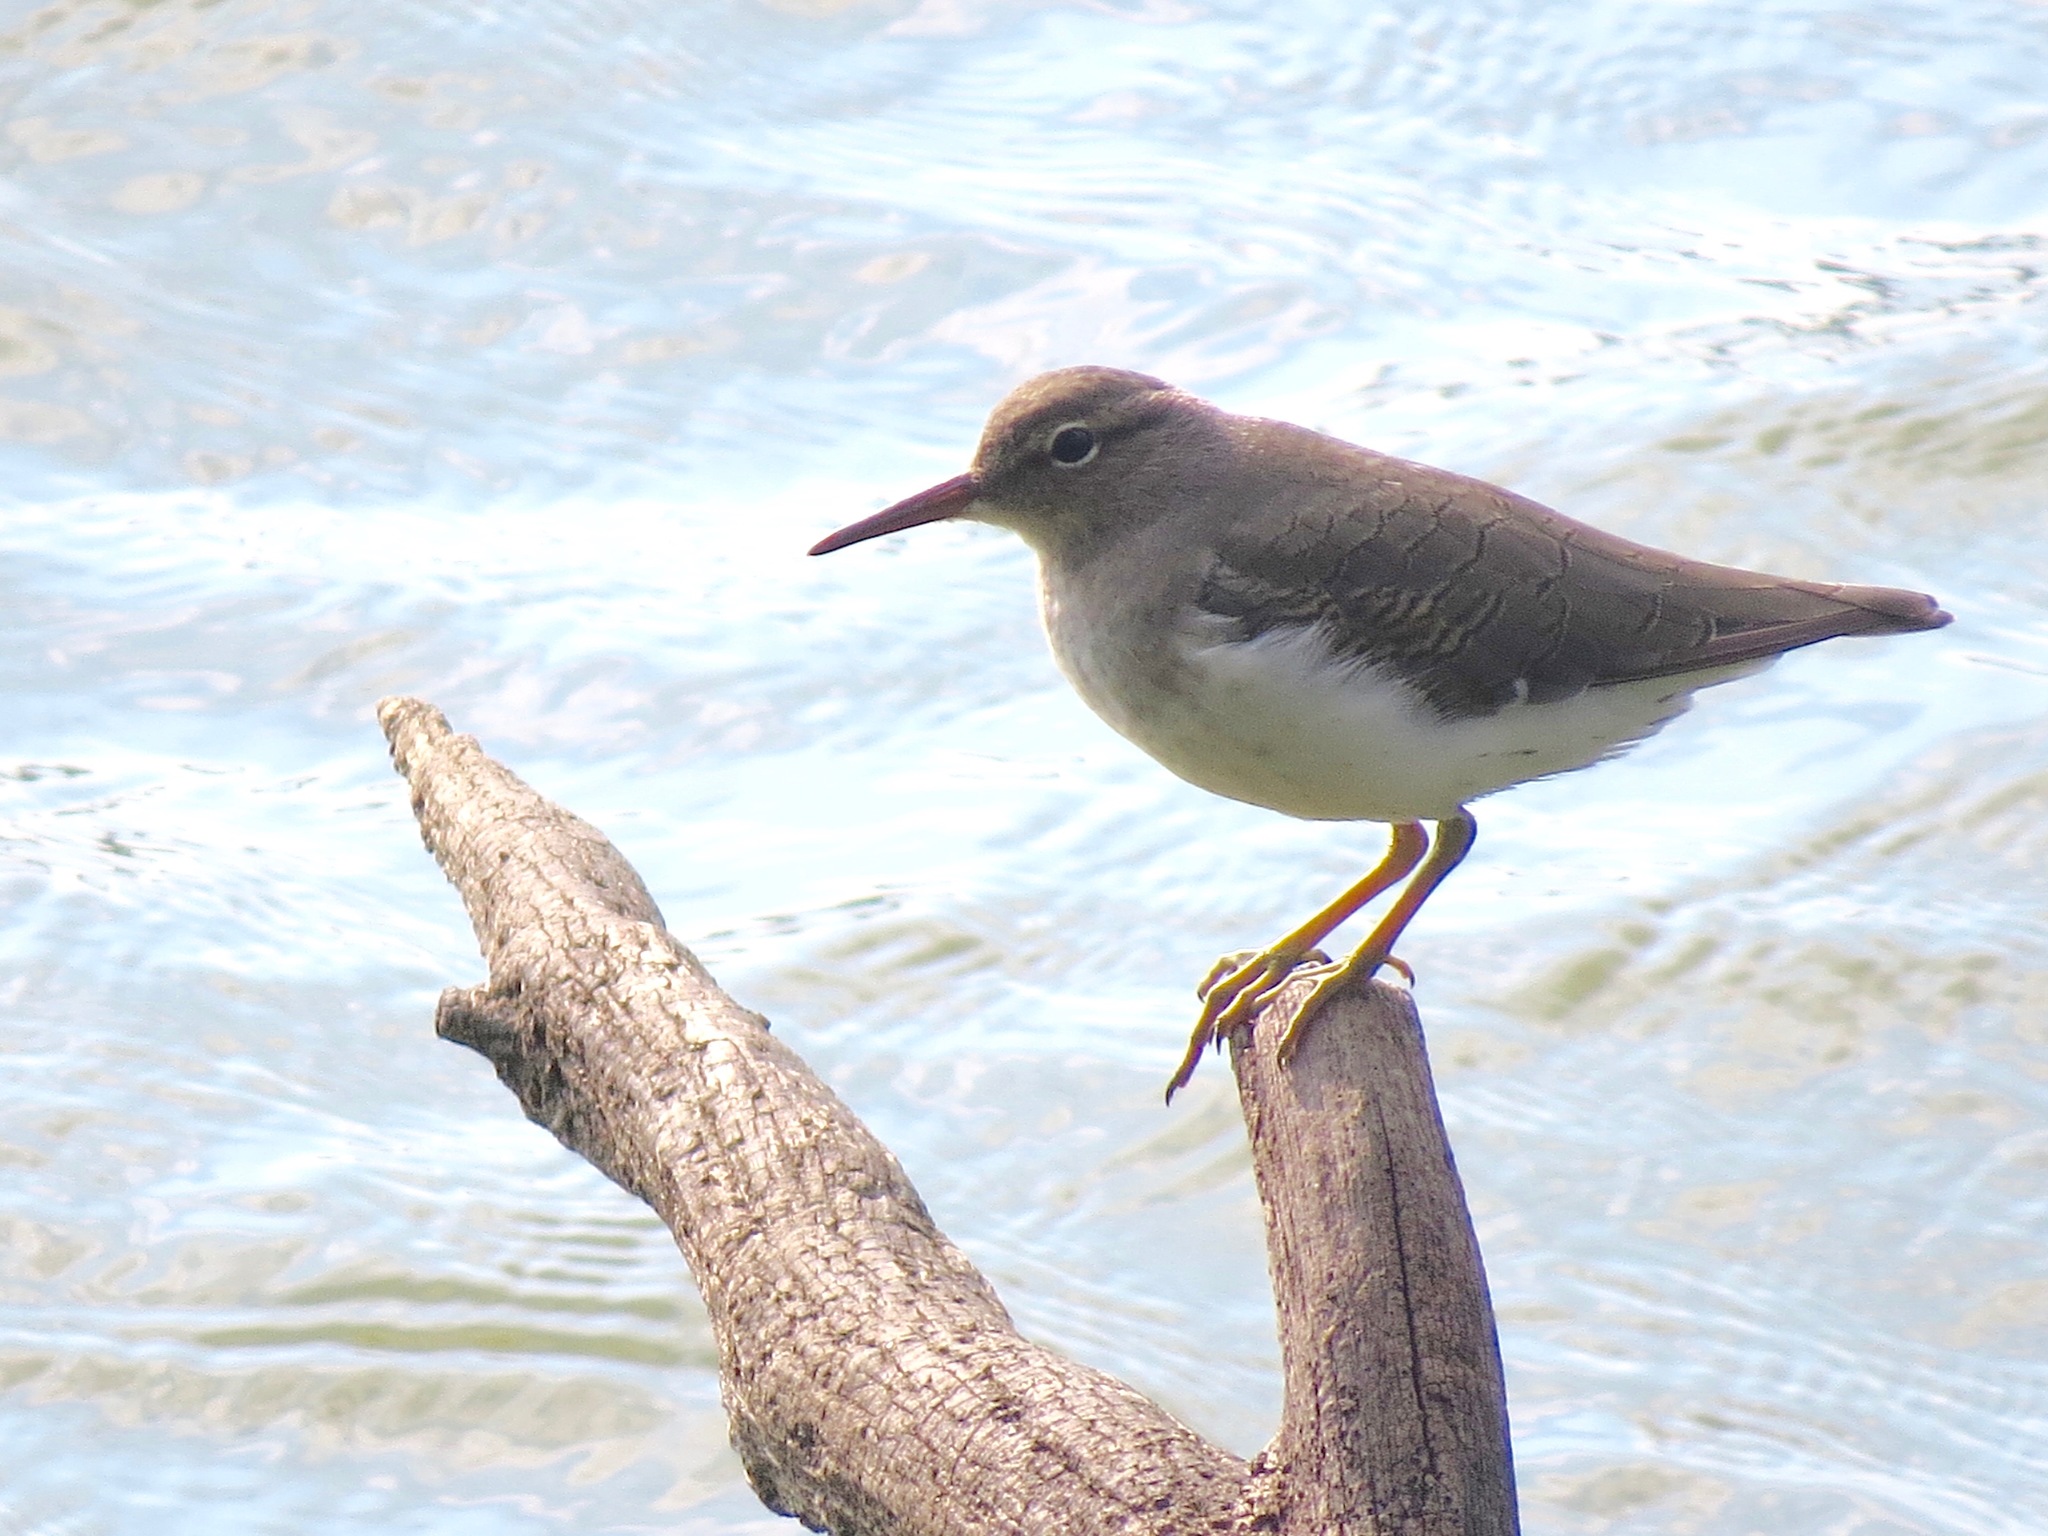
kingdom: Animalia
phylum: Chordata
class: Aves
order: Charadriiformes
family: Scolopacidae
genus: Actitis
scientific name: Actitis macularius
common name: Spotted sandpiper
